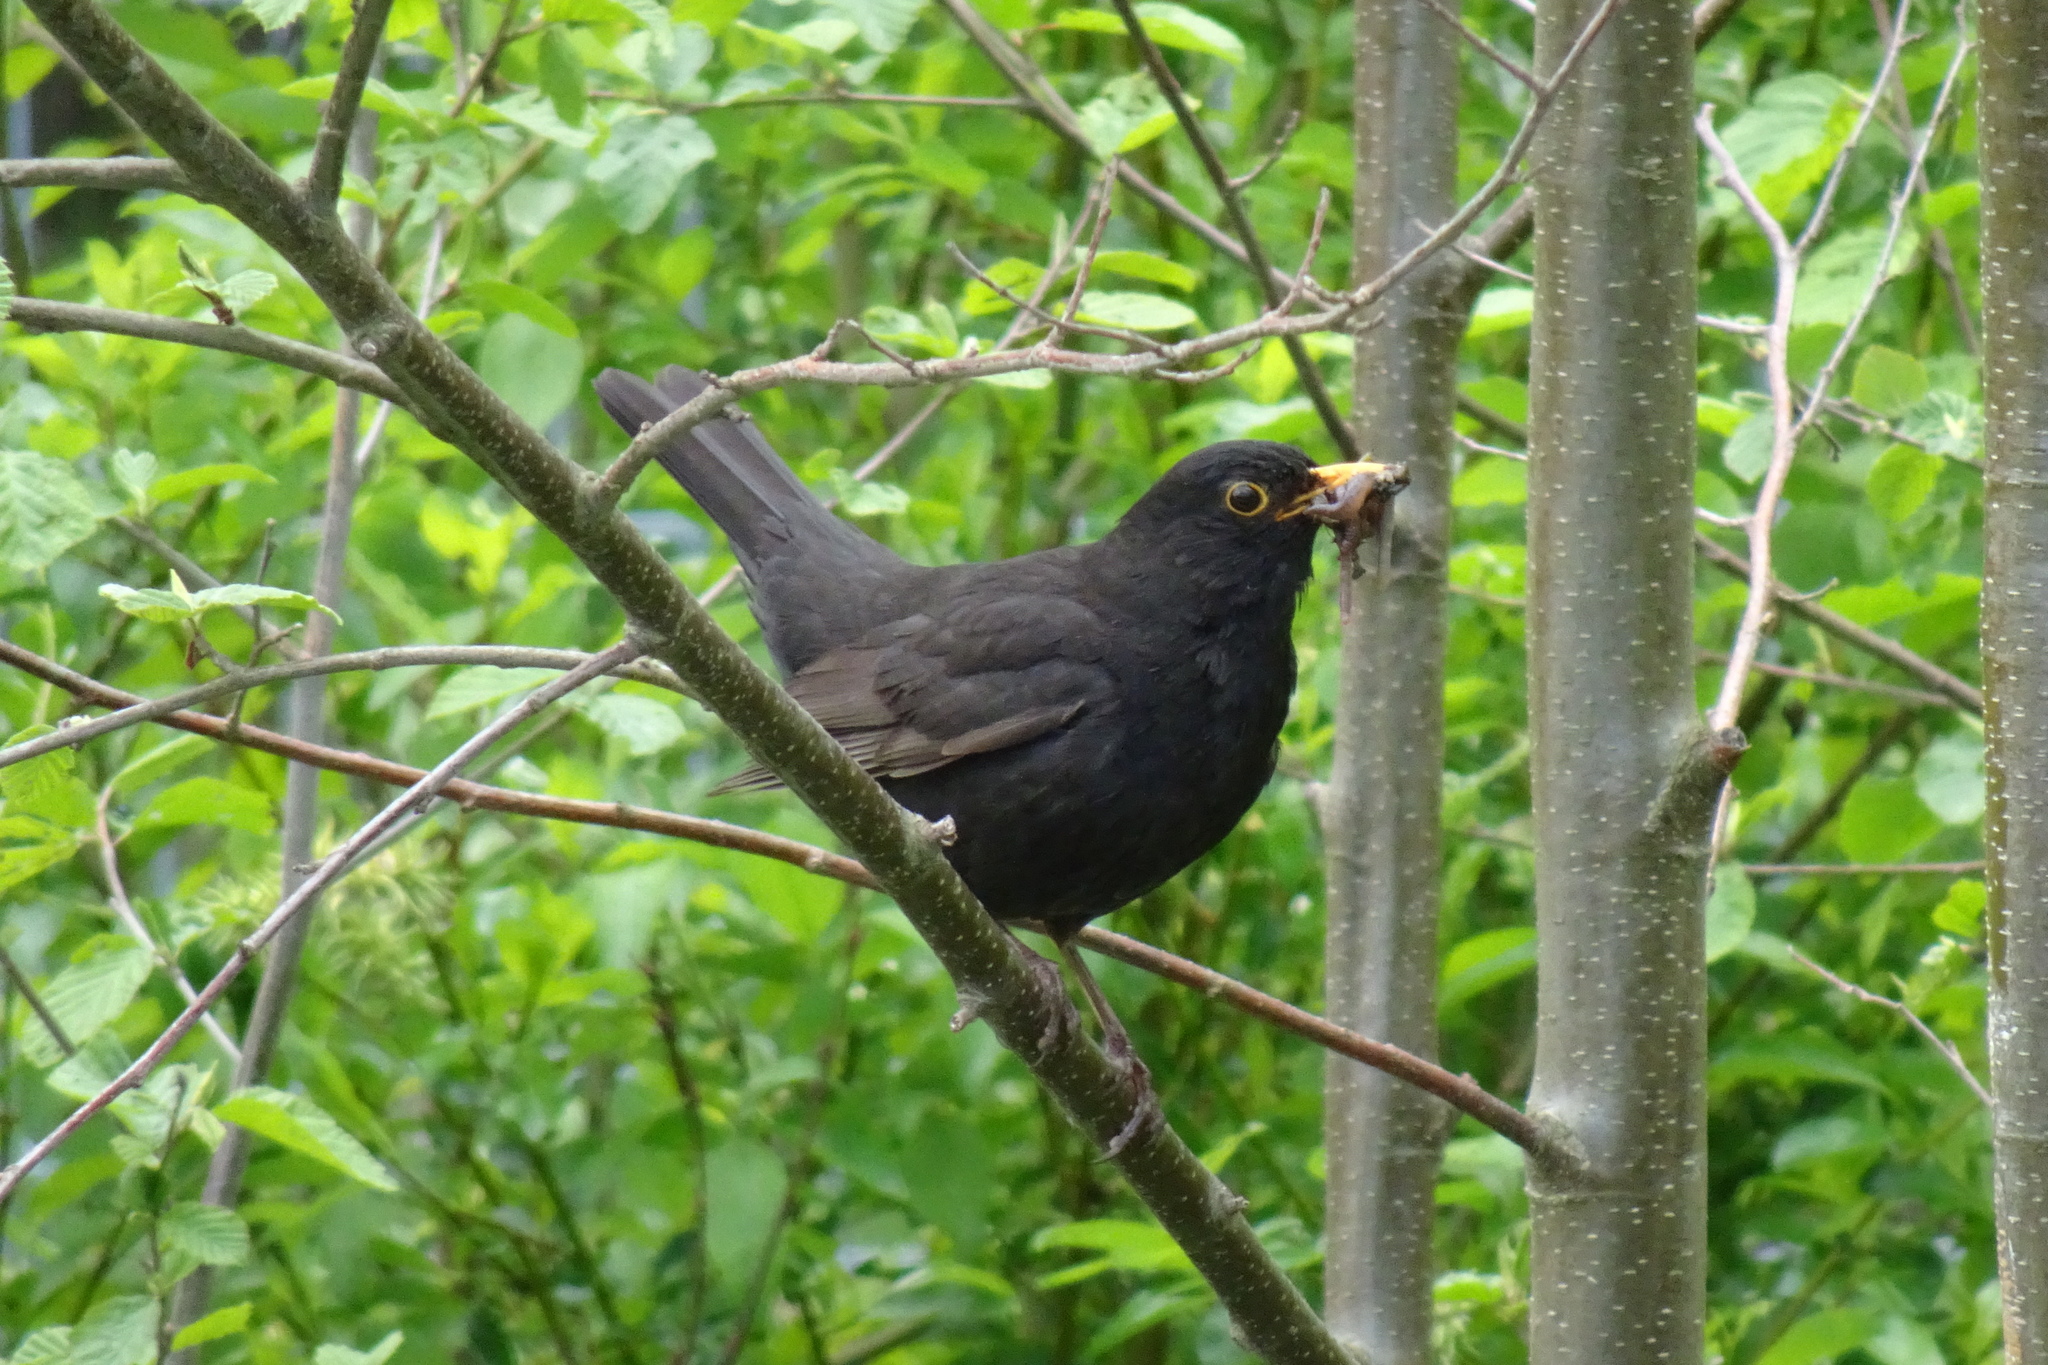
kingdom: Animalia
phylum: Chordata
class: Aves
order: Passeriformes
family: Turdidae
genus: Turdus
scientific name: Turdus merula
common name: Common blackbird
